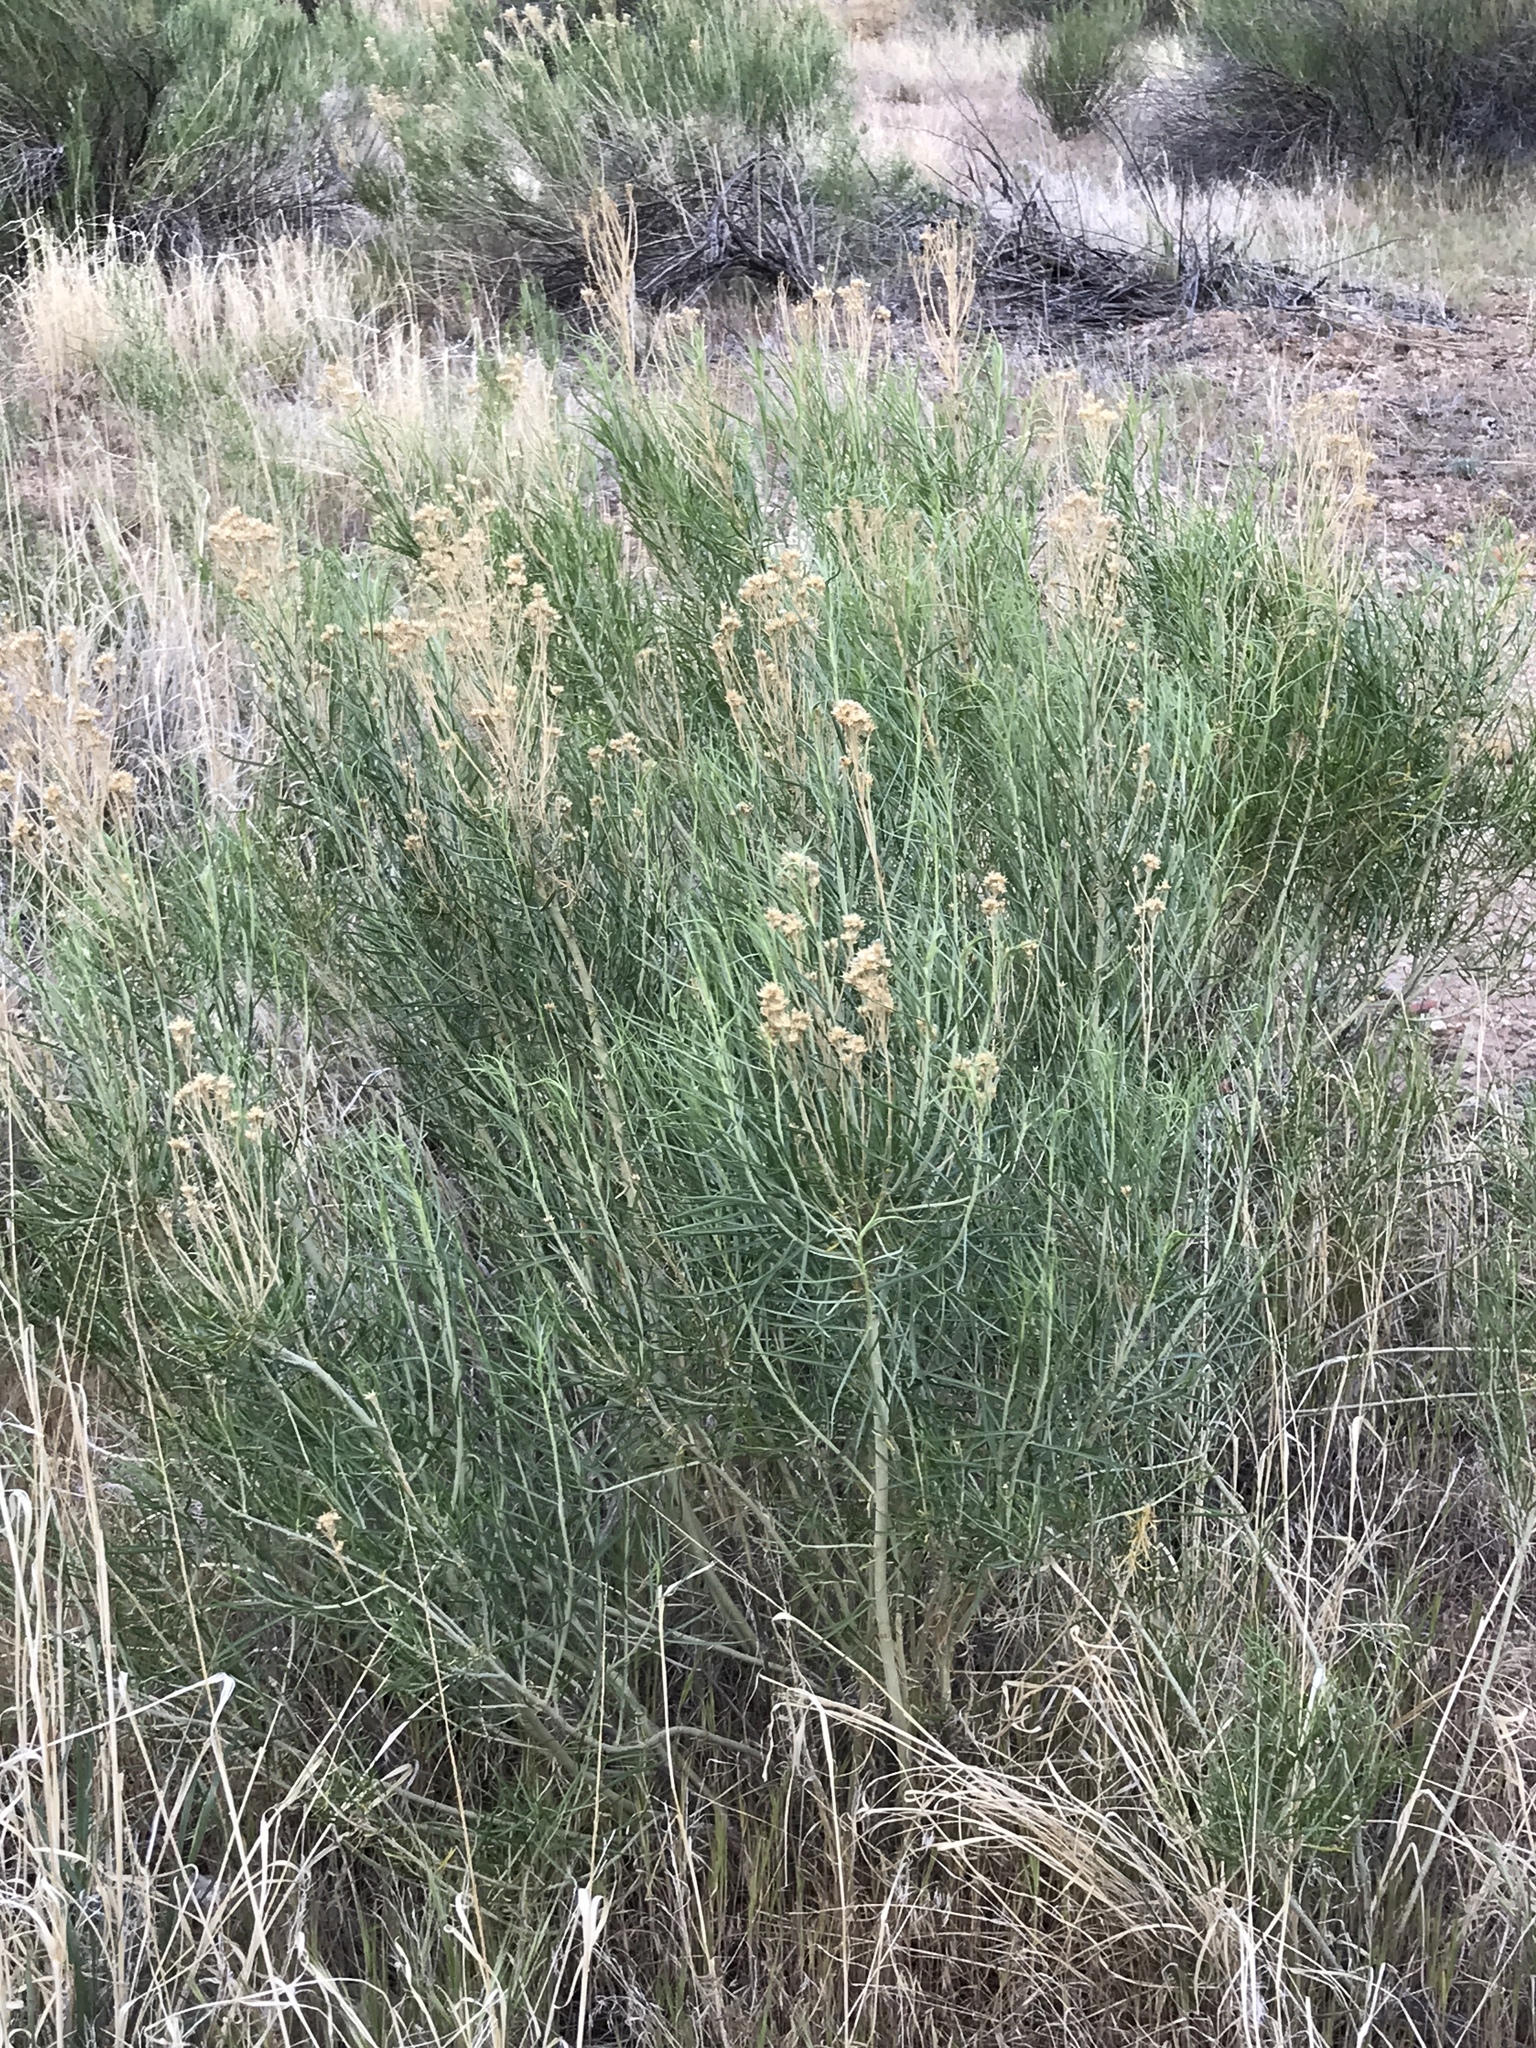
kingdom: Plantae
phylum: Tracheophyta
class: Magnoliopsida
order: Asterales
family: Asteraceae
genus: Ericameria
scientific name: Ericameria nauseosa
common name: Rubber rabbitbrush
